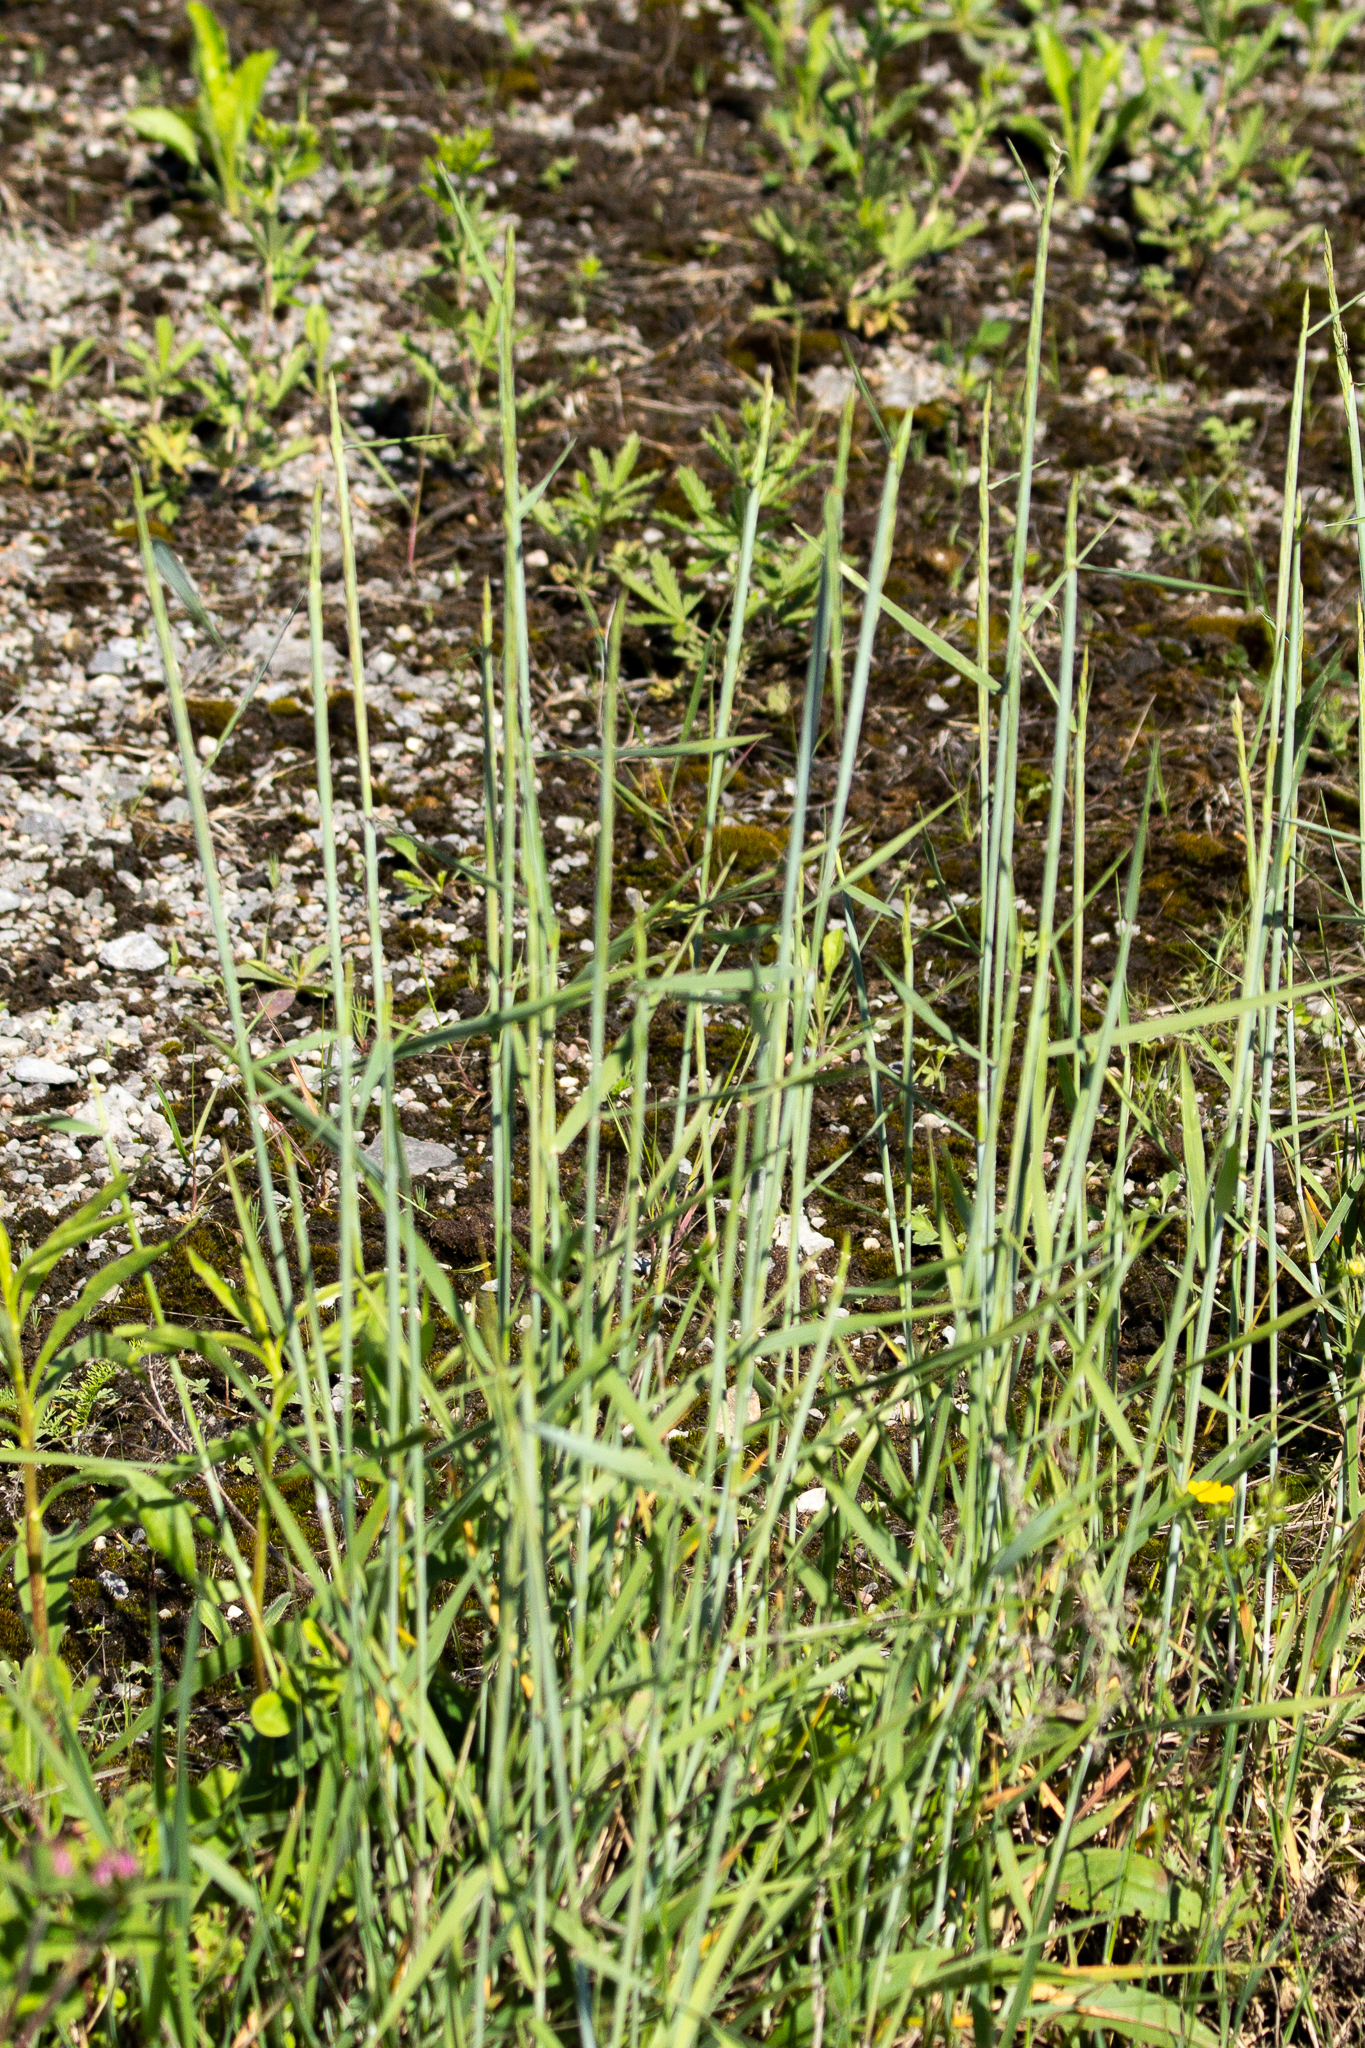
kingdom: Plantae
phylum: Tracheophyta
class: Liliopsida
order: Poales
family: Poaceae
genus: Elymus
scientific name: Elymus violaceus
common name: Arctic wheatgrass
